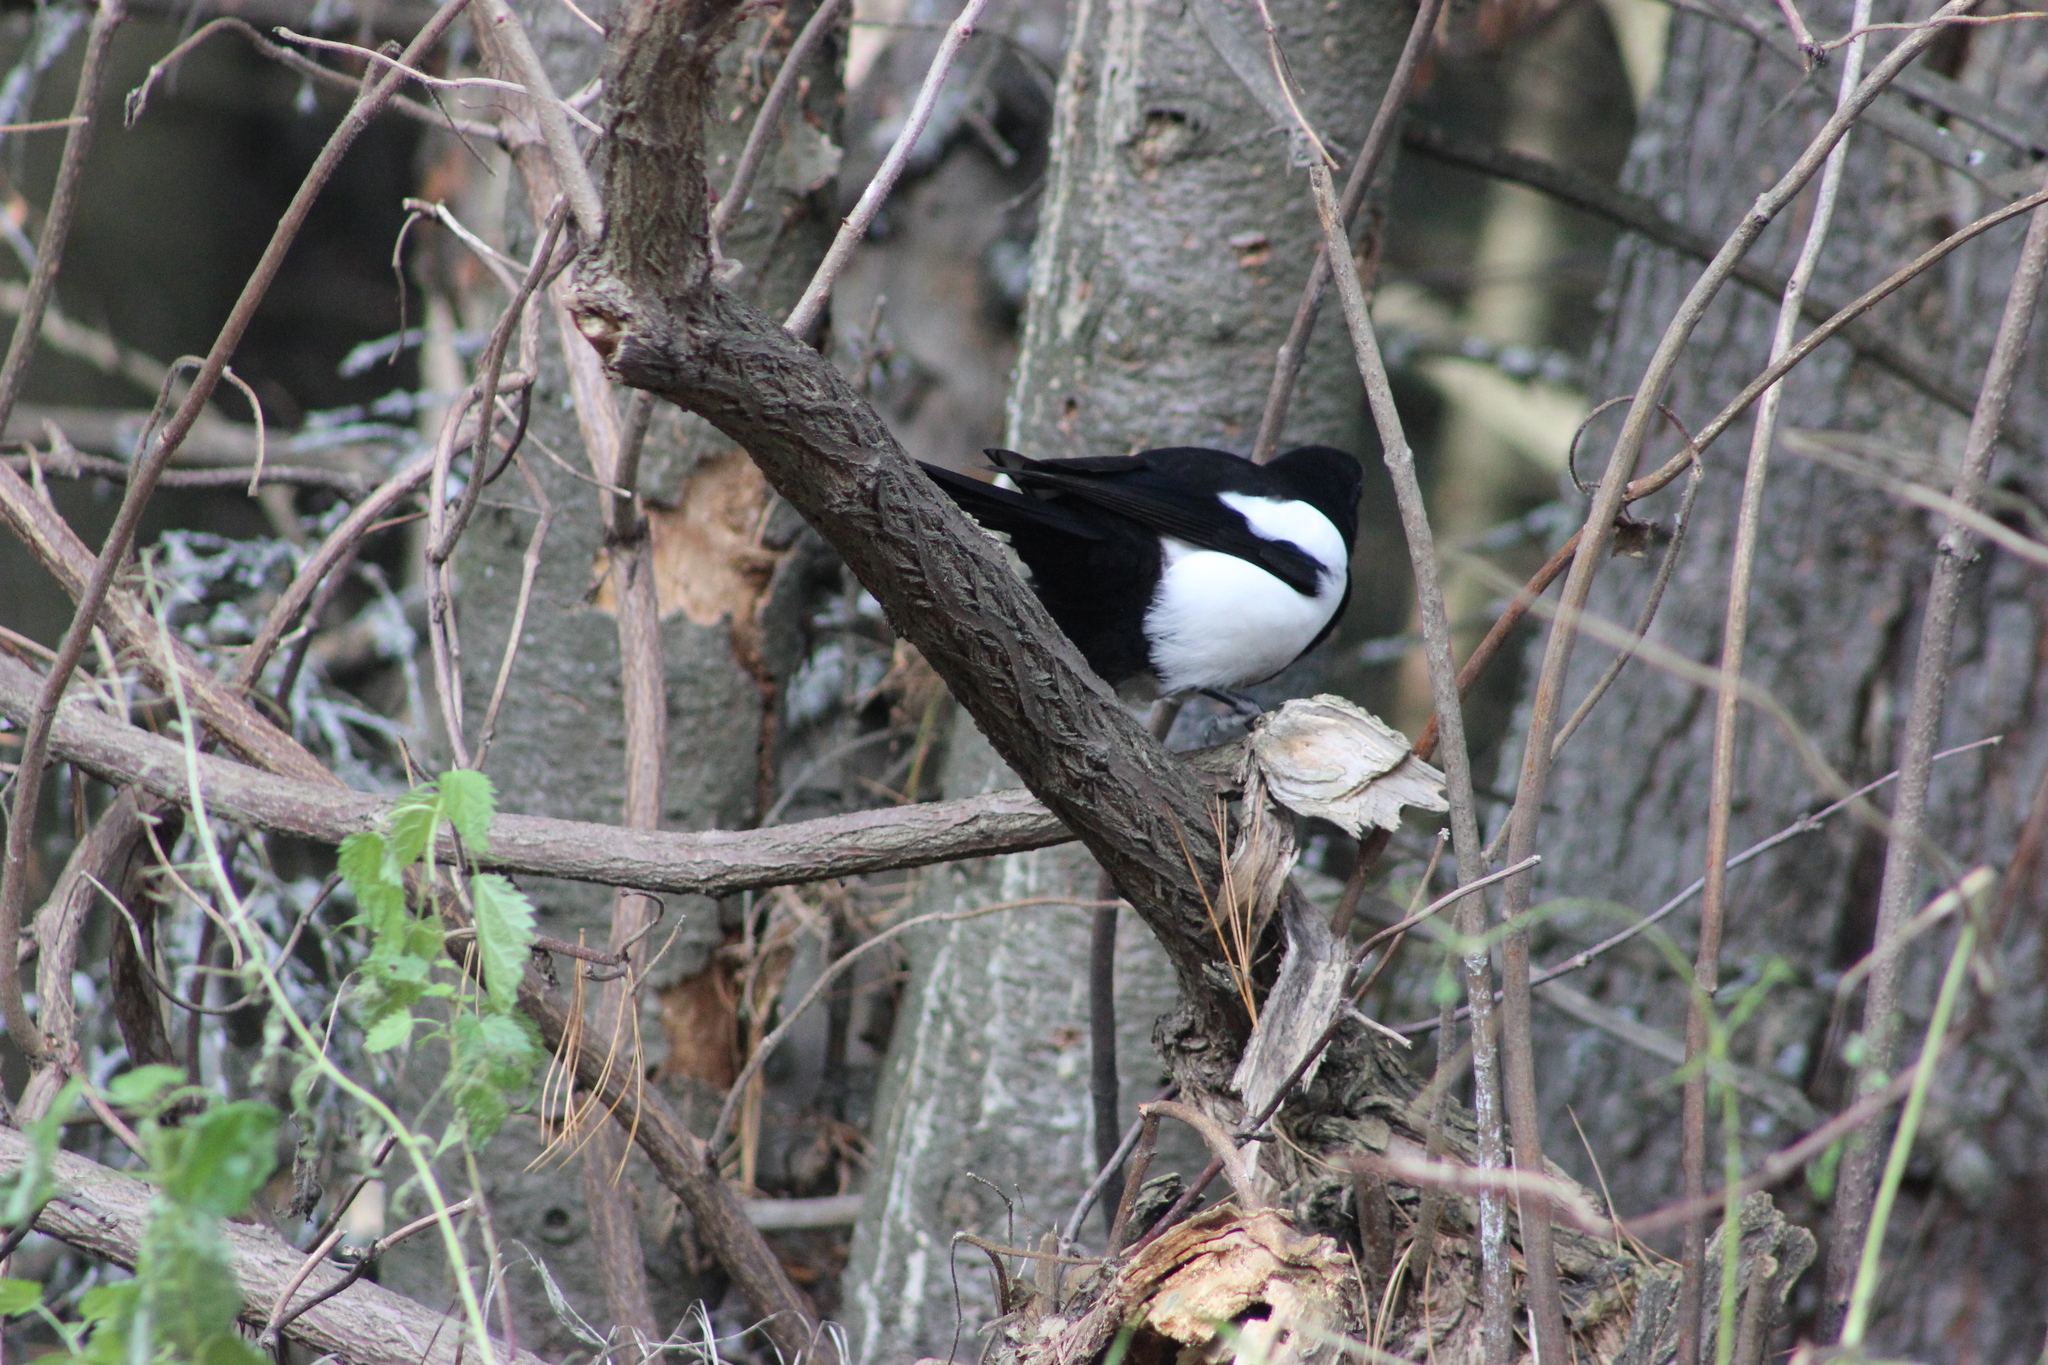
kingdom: Animalia
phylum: Chordata
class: Aves
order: Passeriformes
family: Corvidae
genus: Pica
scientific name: Pica pica
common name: Eurasian magpie
